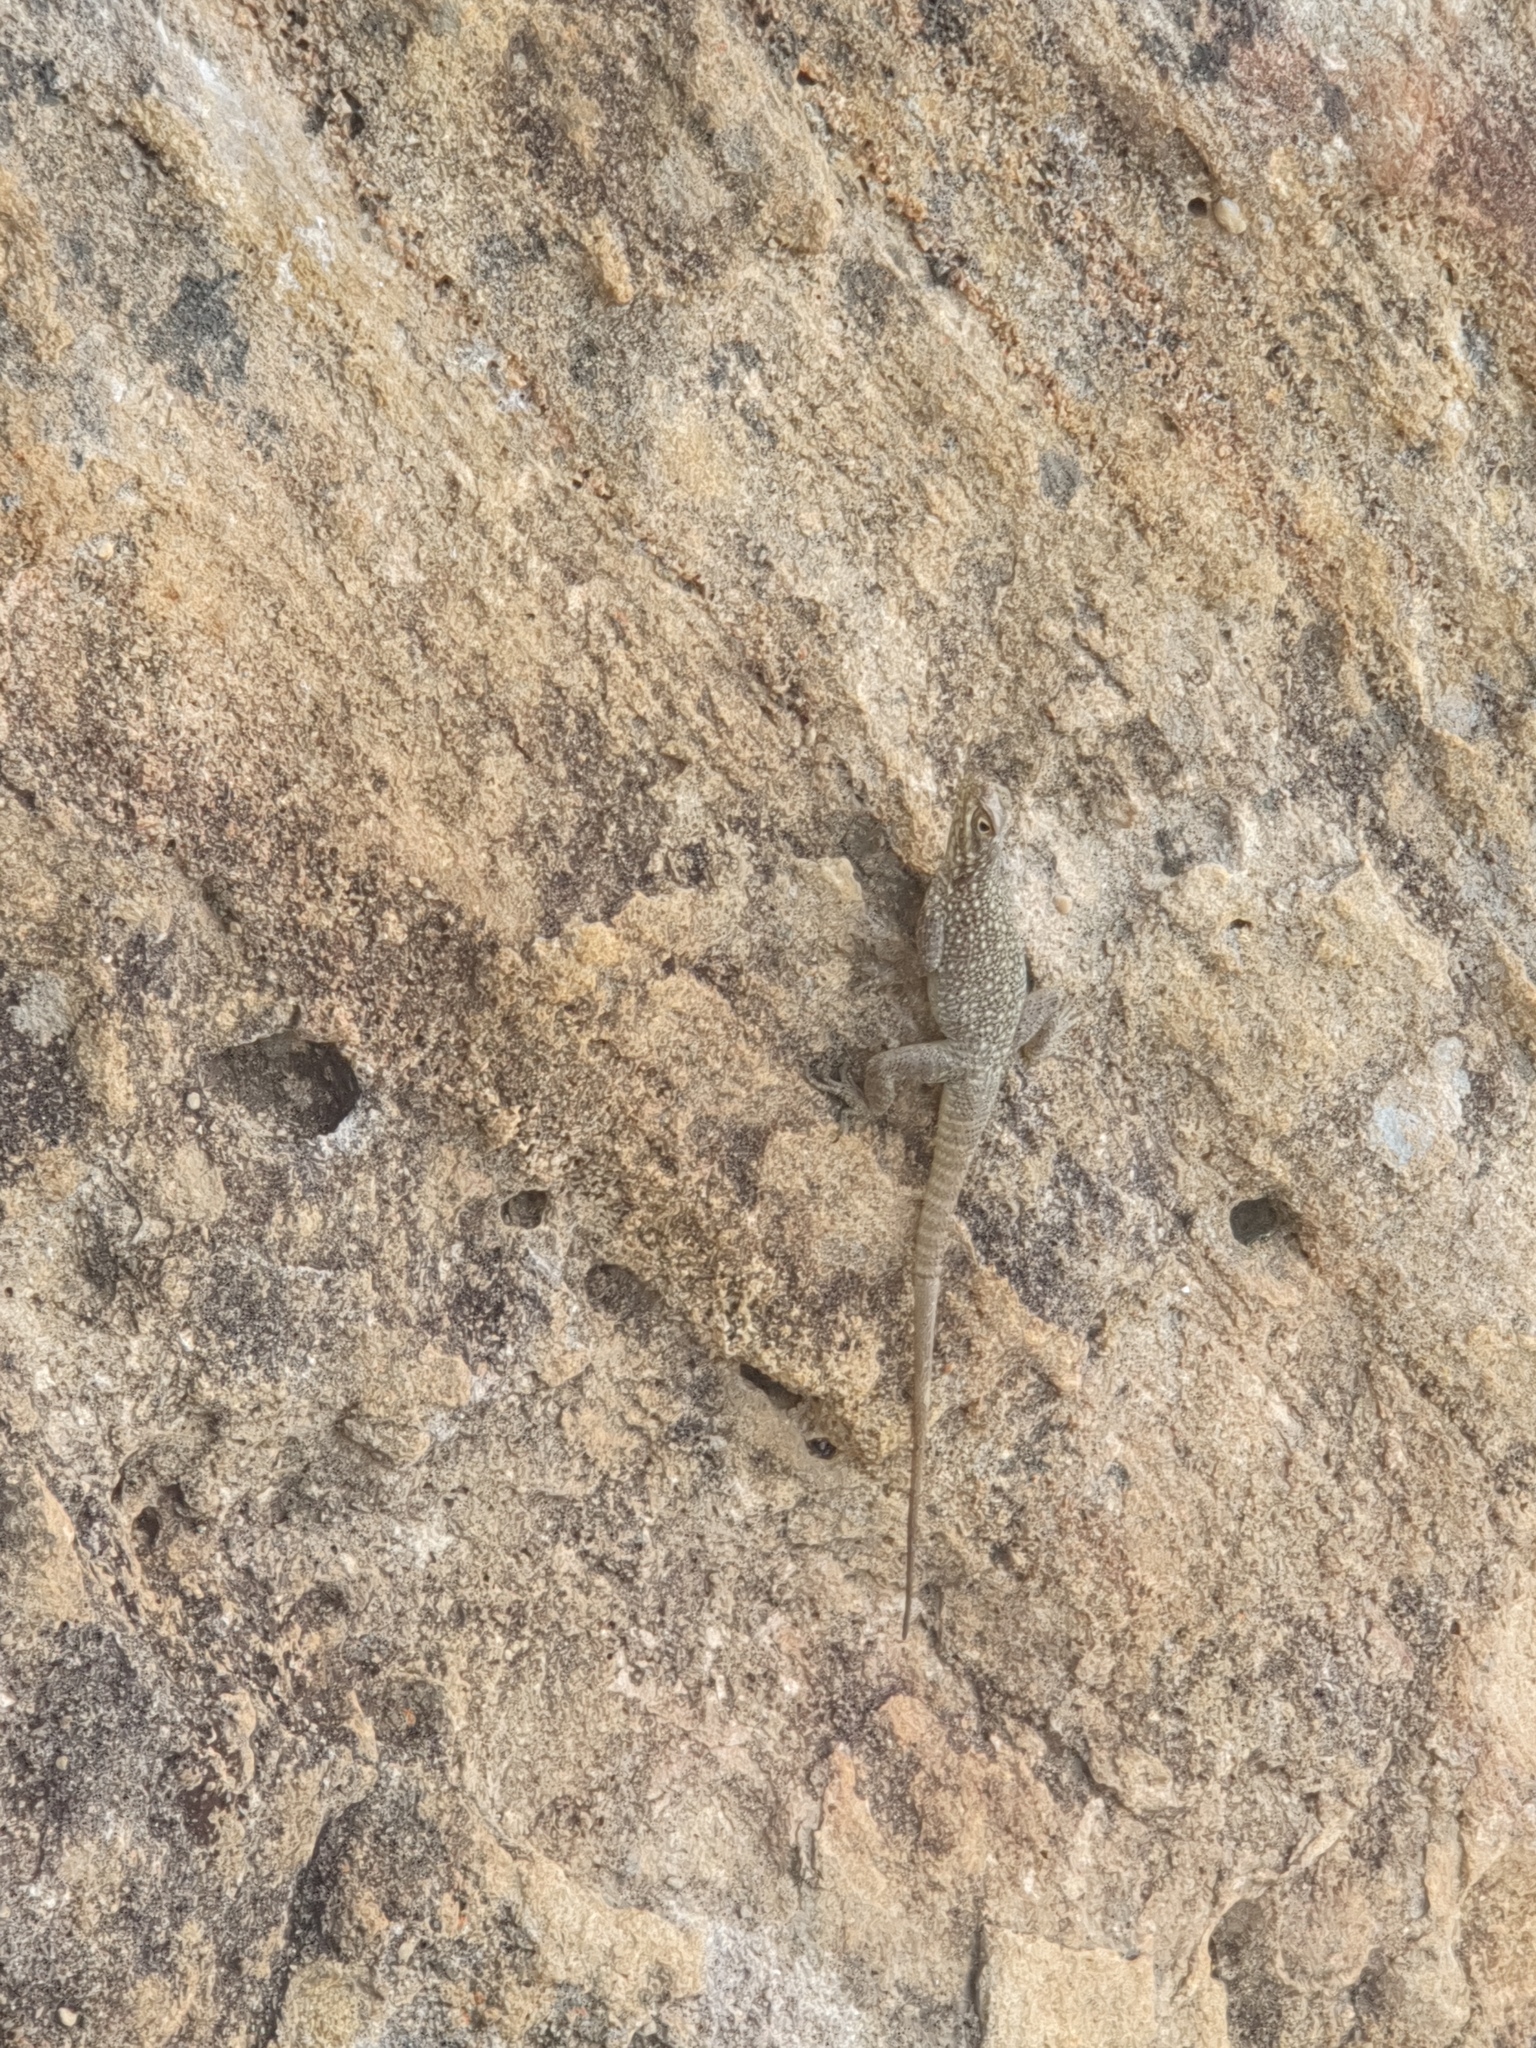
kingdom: Animalia
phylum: Chordata
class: Squamata
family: Opluridae
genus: Oplurus
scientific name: Oplurus quadrimaculatus
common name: Duméril's madagascar swift
